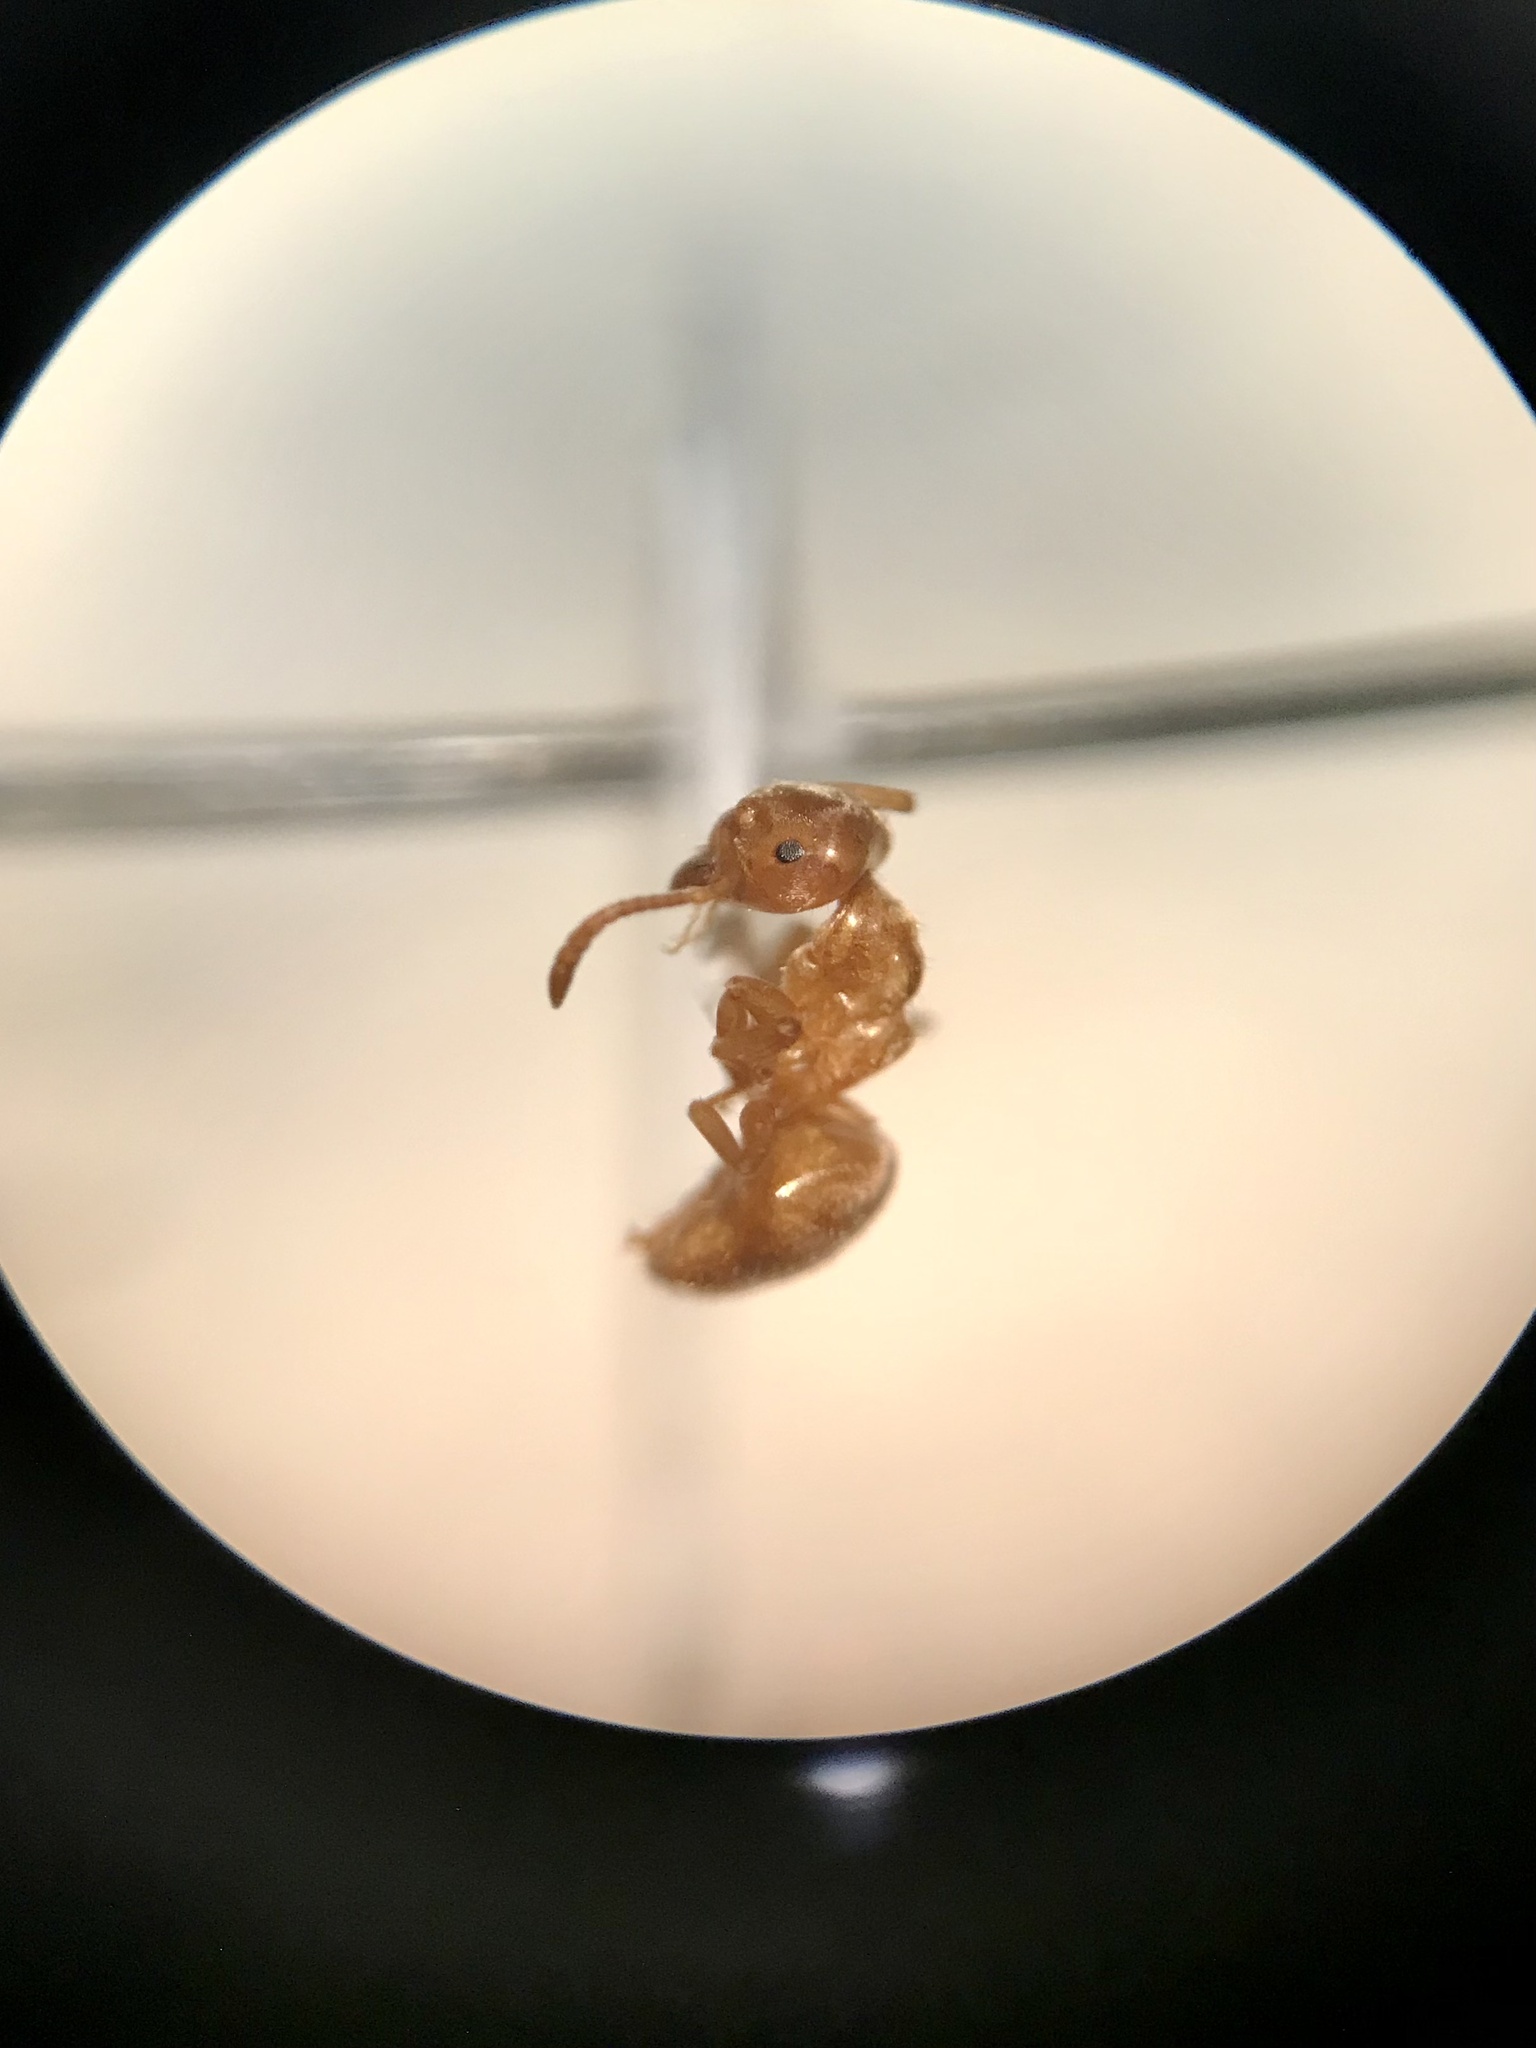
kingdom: Animalia
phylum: Arthropoda
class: Insecta
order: Hymenoptera
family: Formicidae
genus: Lasius
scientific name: Lasius aphidicola
